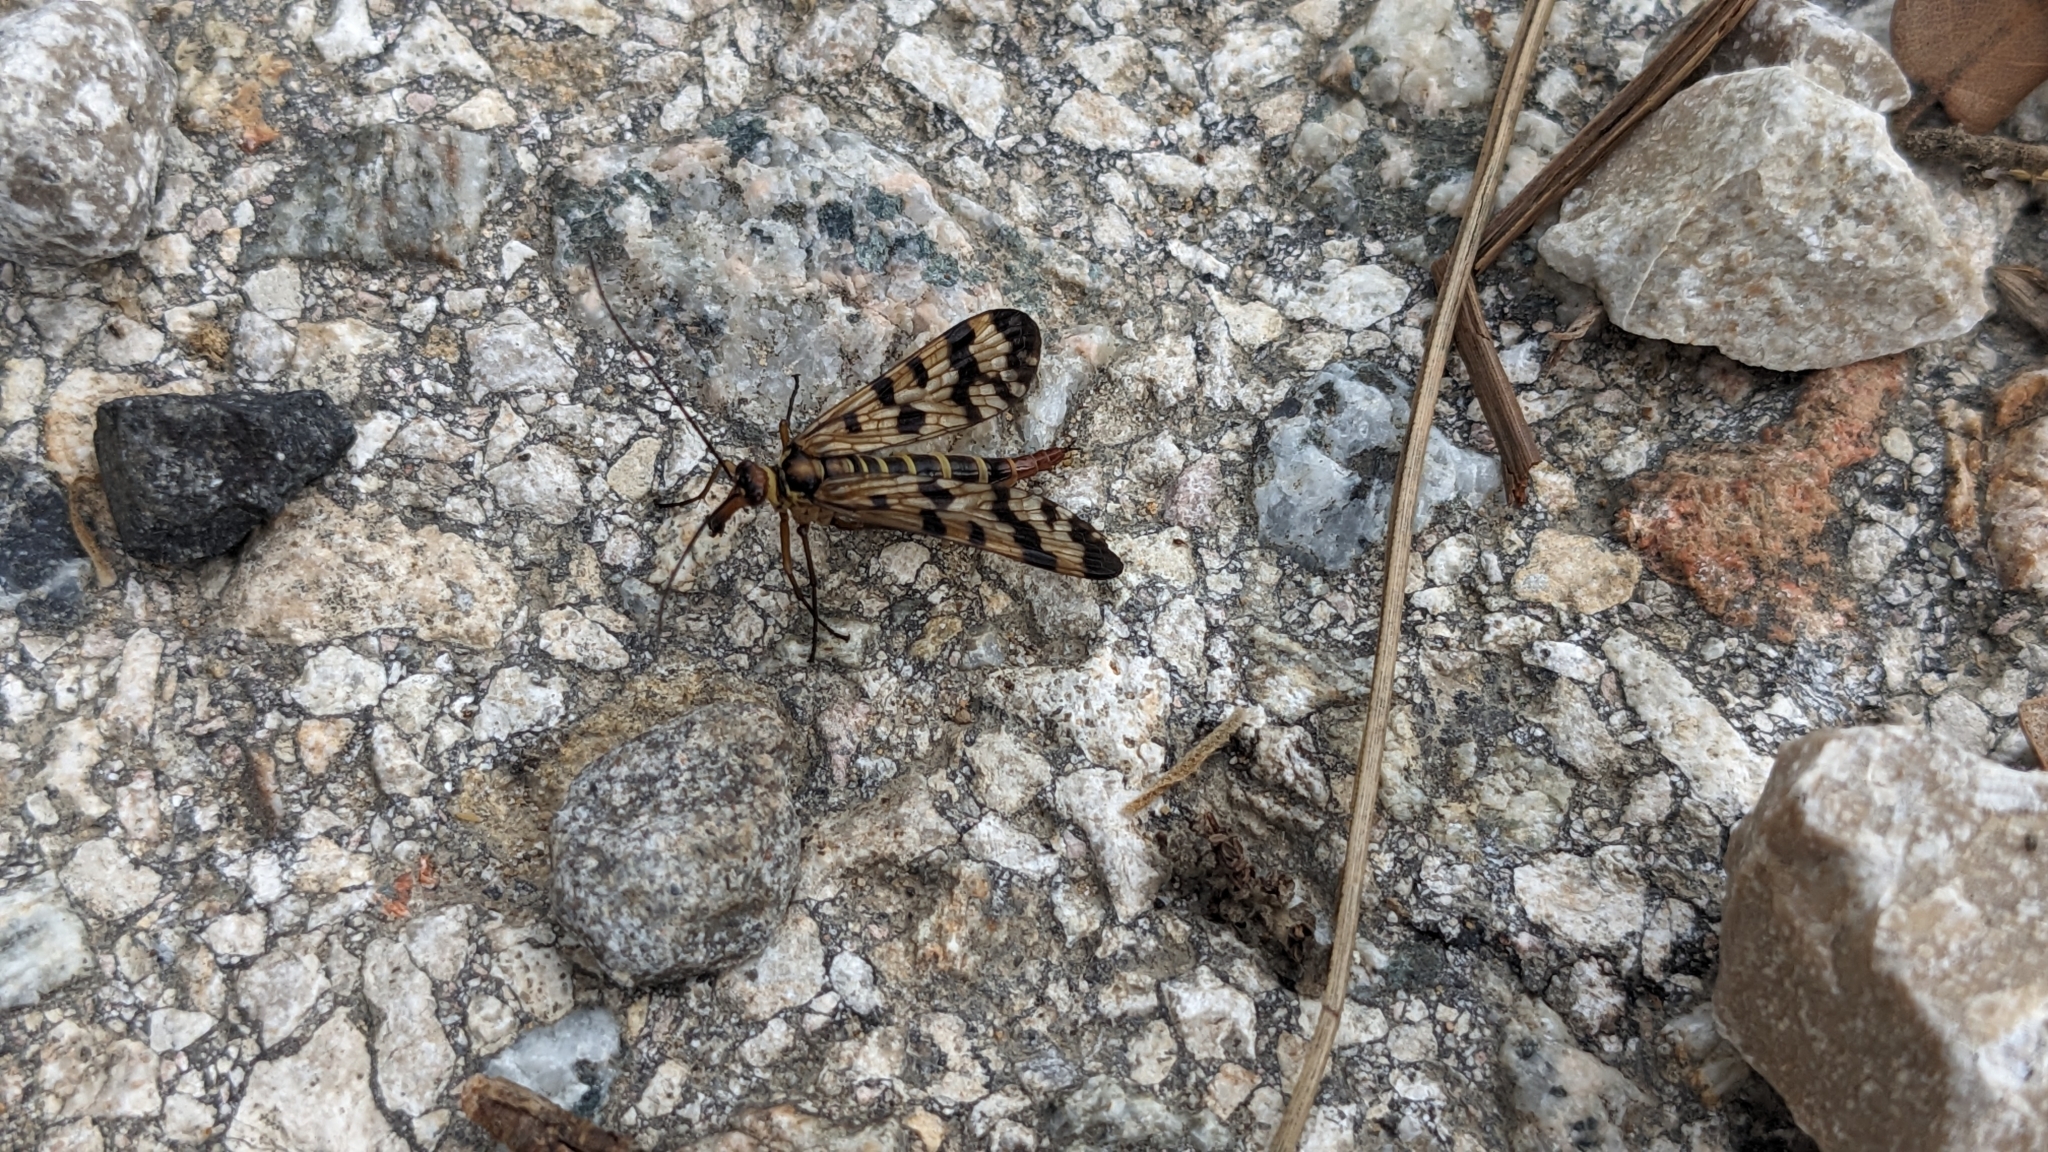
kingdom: Animalia
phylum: Arthropoda
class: Insecta
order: Mecoptera
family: Panorpidae
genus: Panorpa
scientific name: Panorpa meridionalis
